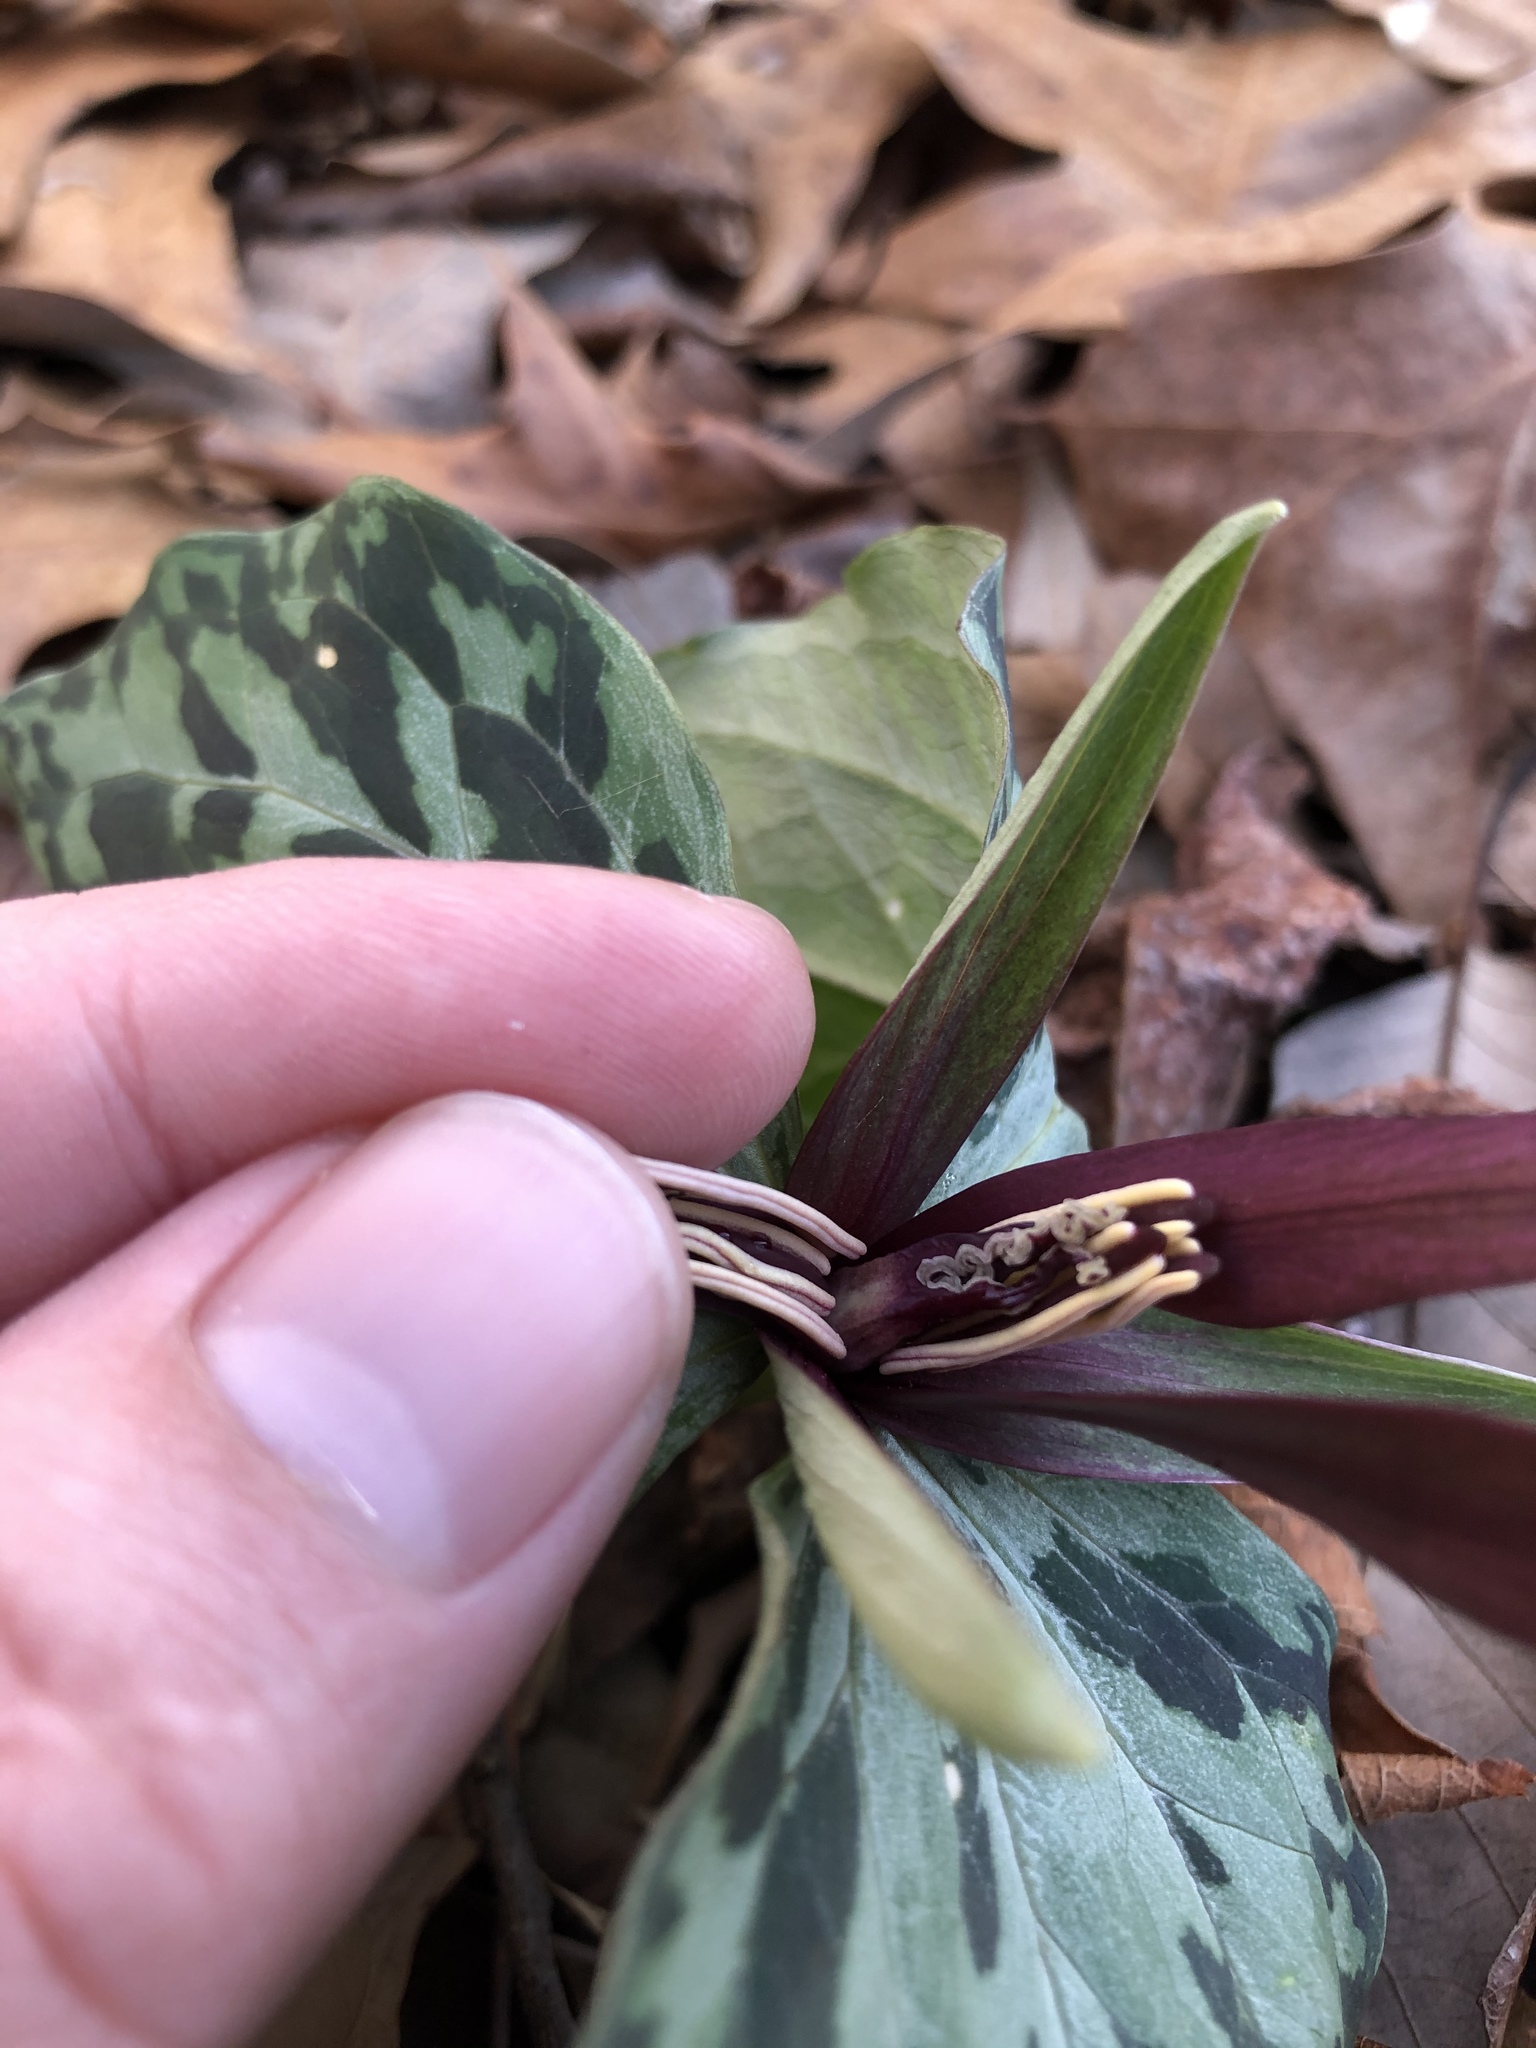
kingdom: Plantae
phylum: Tracheophyta
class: Liliopsida
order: Liliales
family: Melanthiaceae
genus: Trillium
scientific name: Trillium cuneatum
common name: Cuneate trillium
